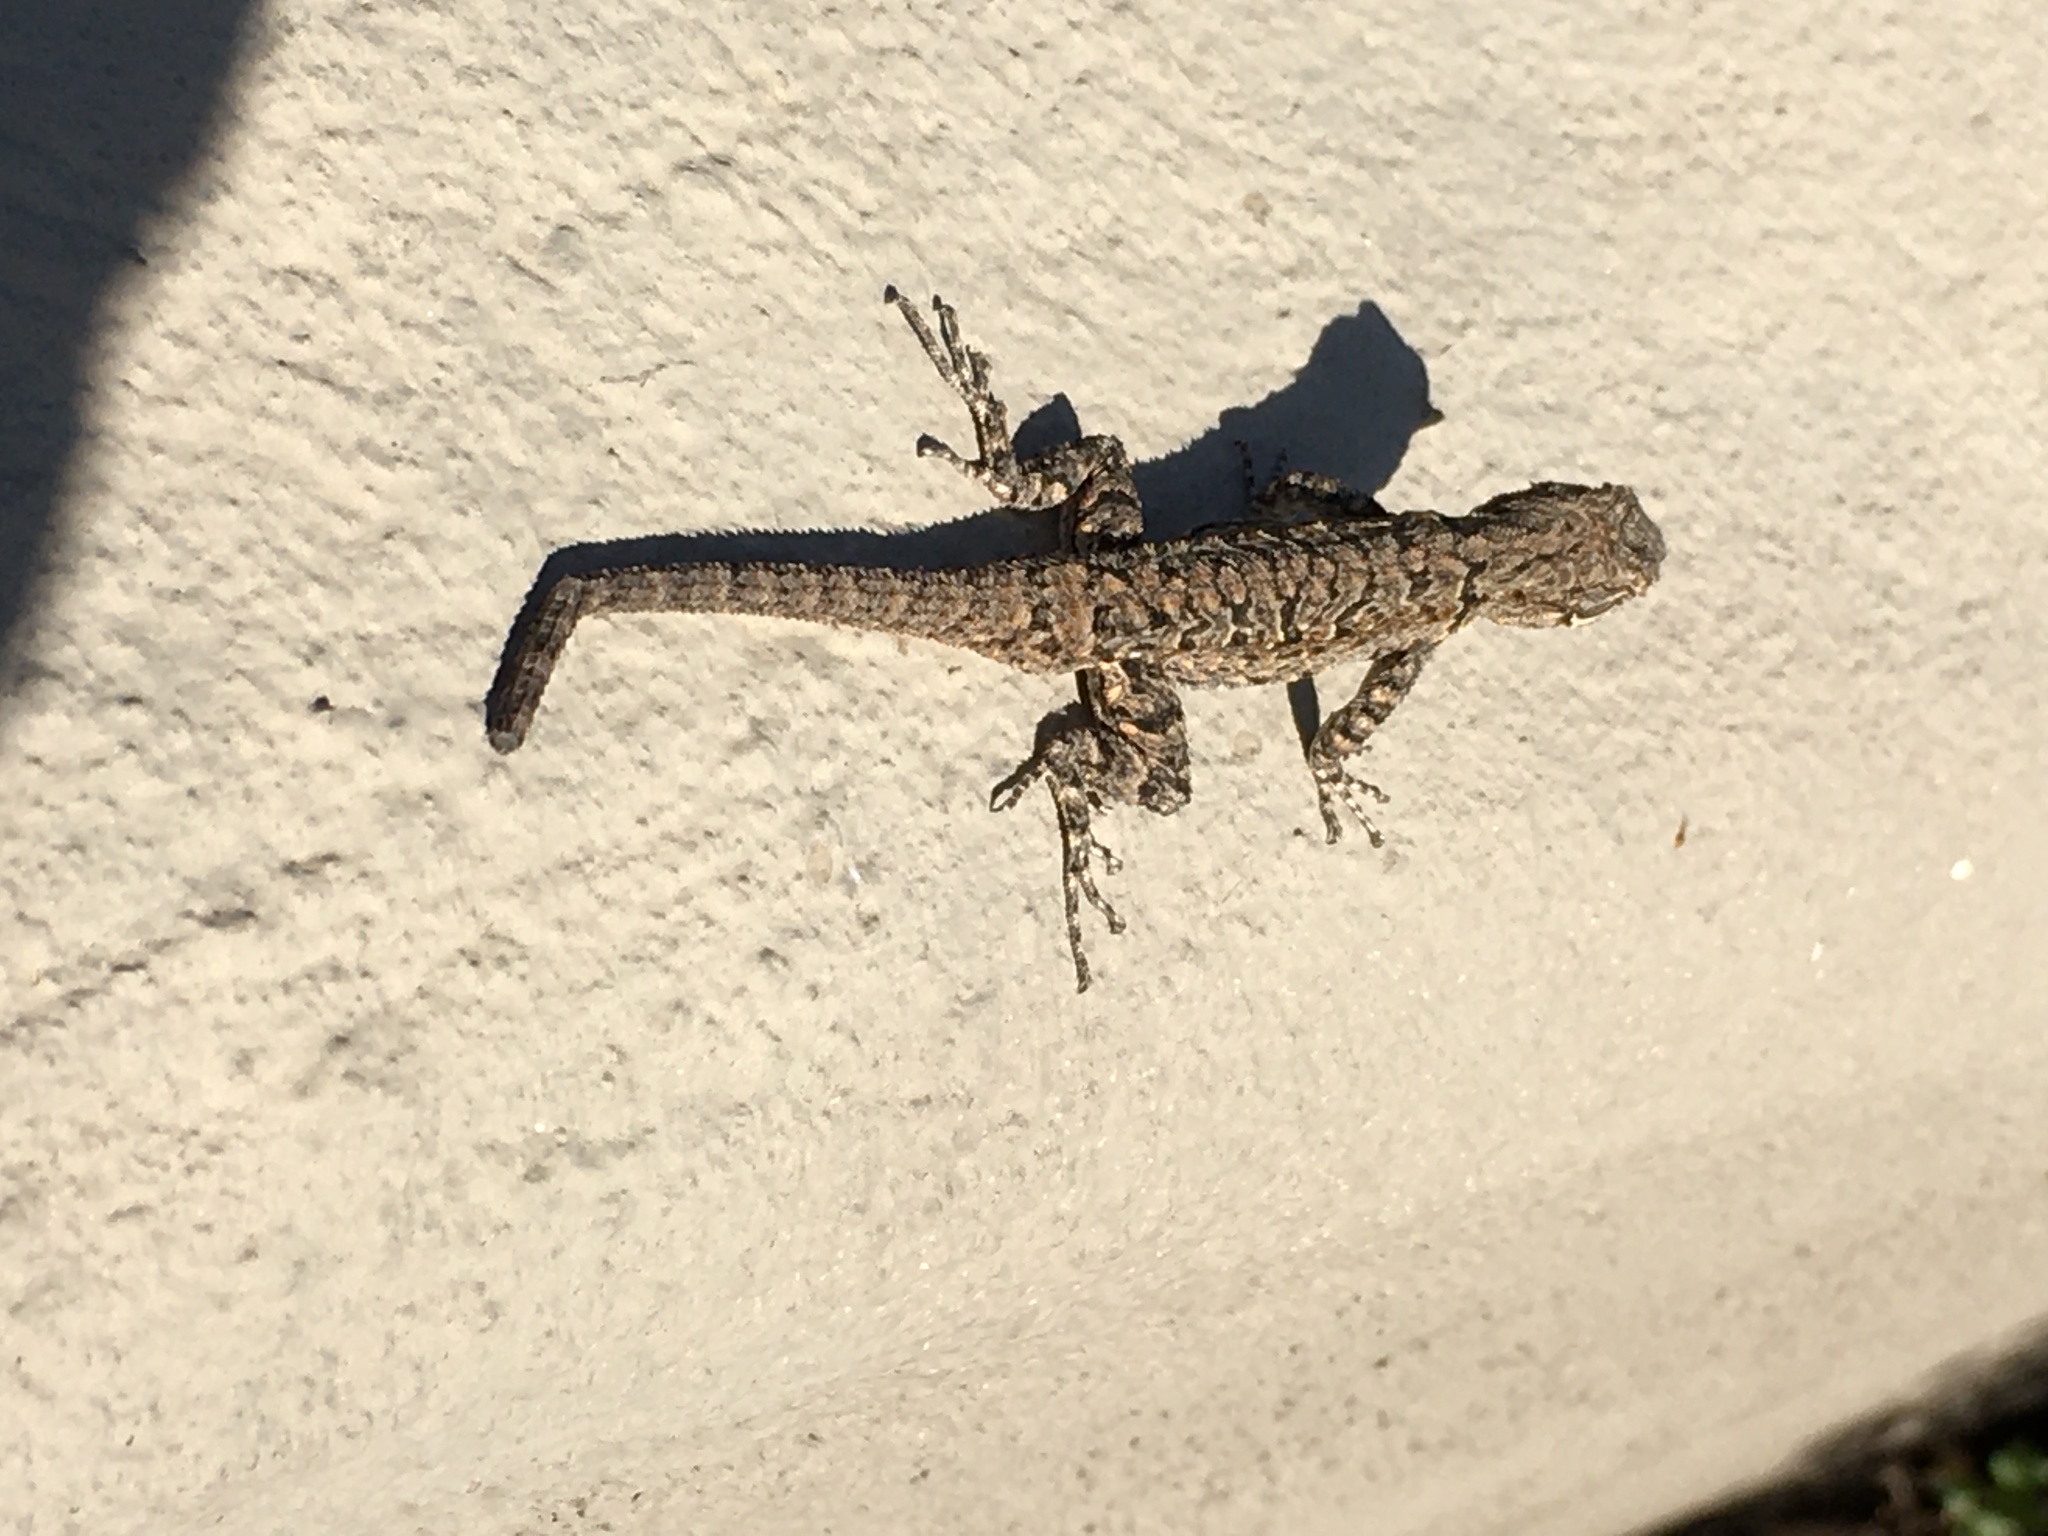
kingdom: Animalia
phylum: Chordata
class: Squamata
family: Phrynosomatidae
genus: Urosaurus
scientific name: Urosaurus ornatus
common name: Ornate tree lizard
